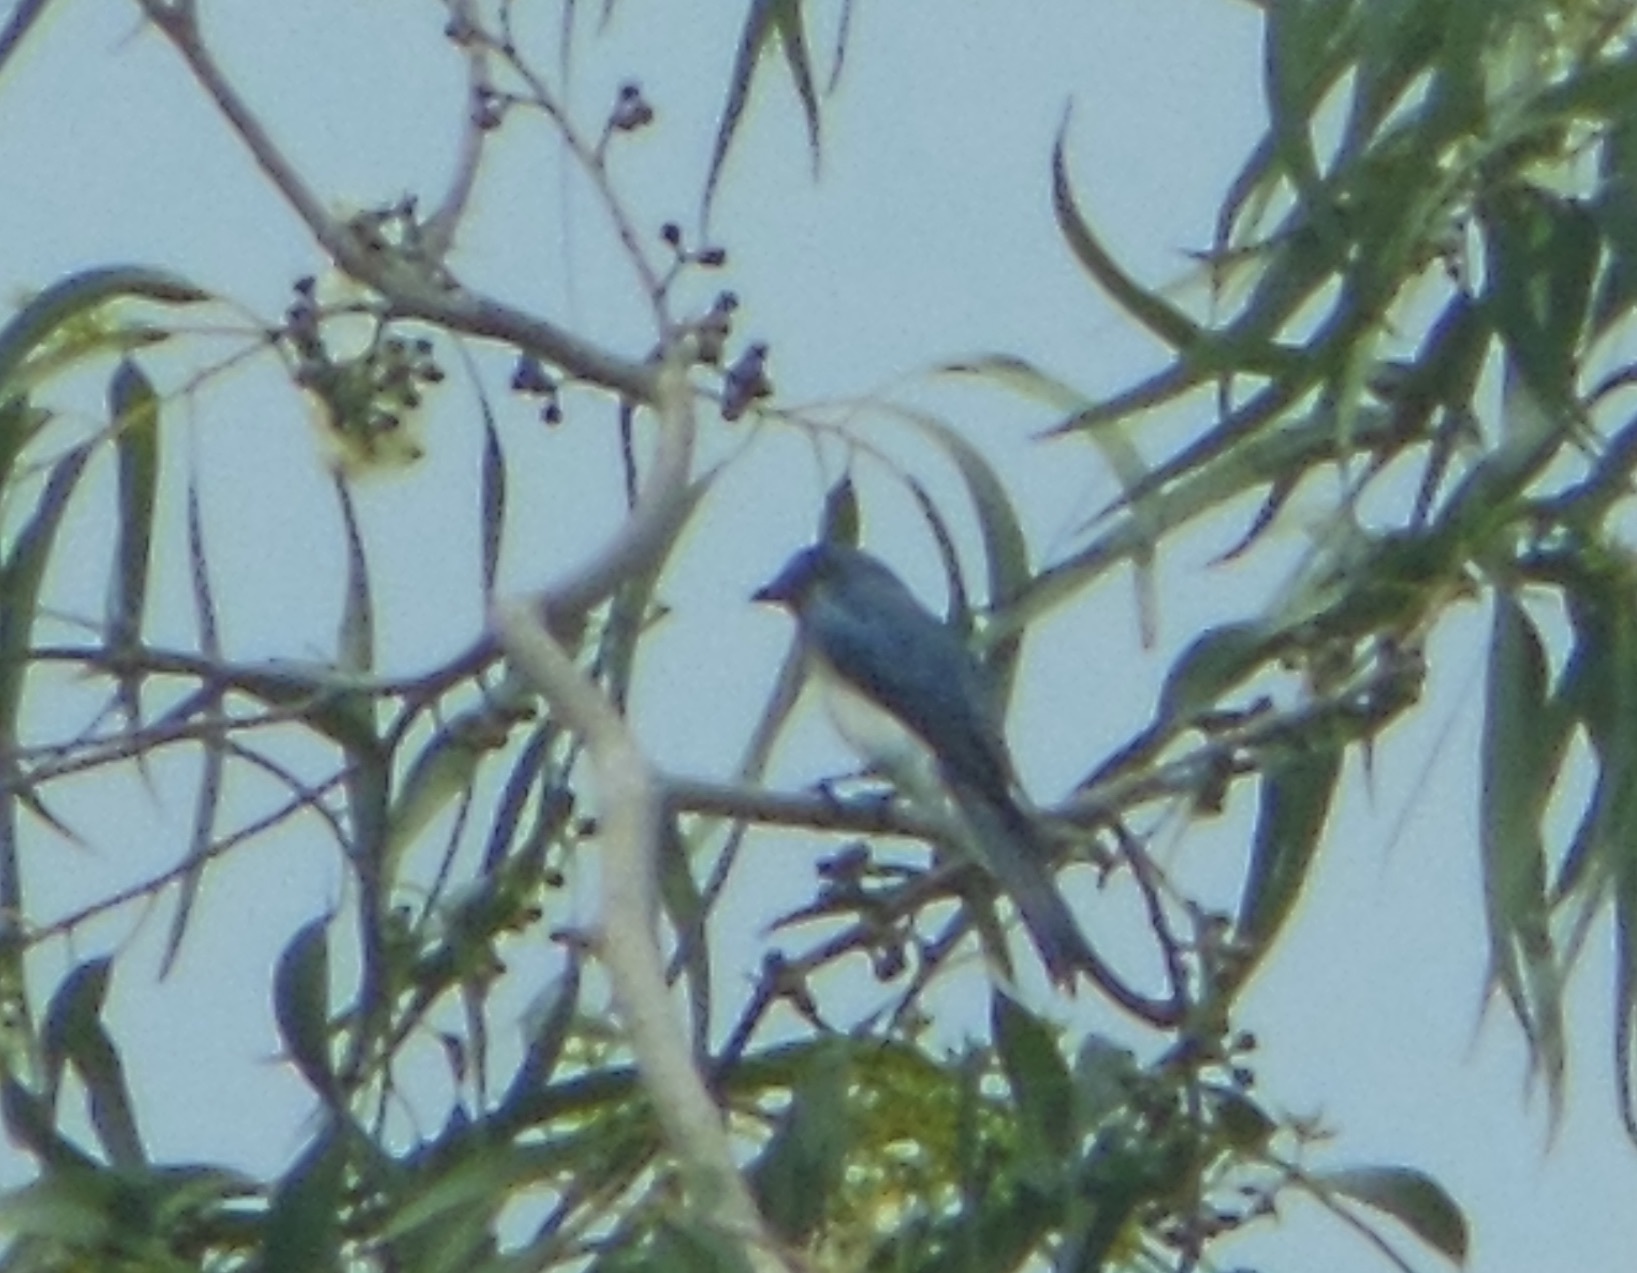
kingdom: Animalia
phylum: Chordata
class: Aves
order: Passeriformes
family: Dicruridae
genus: Dicrurus
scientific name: Dicrurus caerulescens
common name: White-bellied drongo
